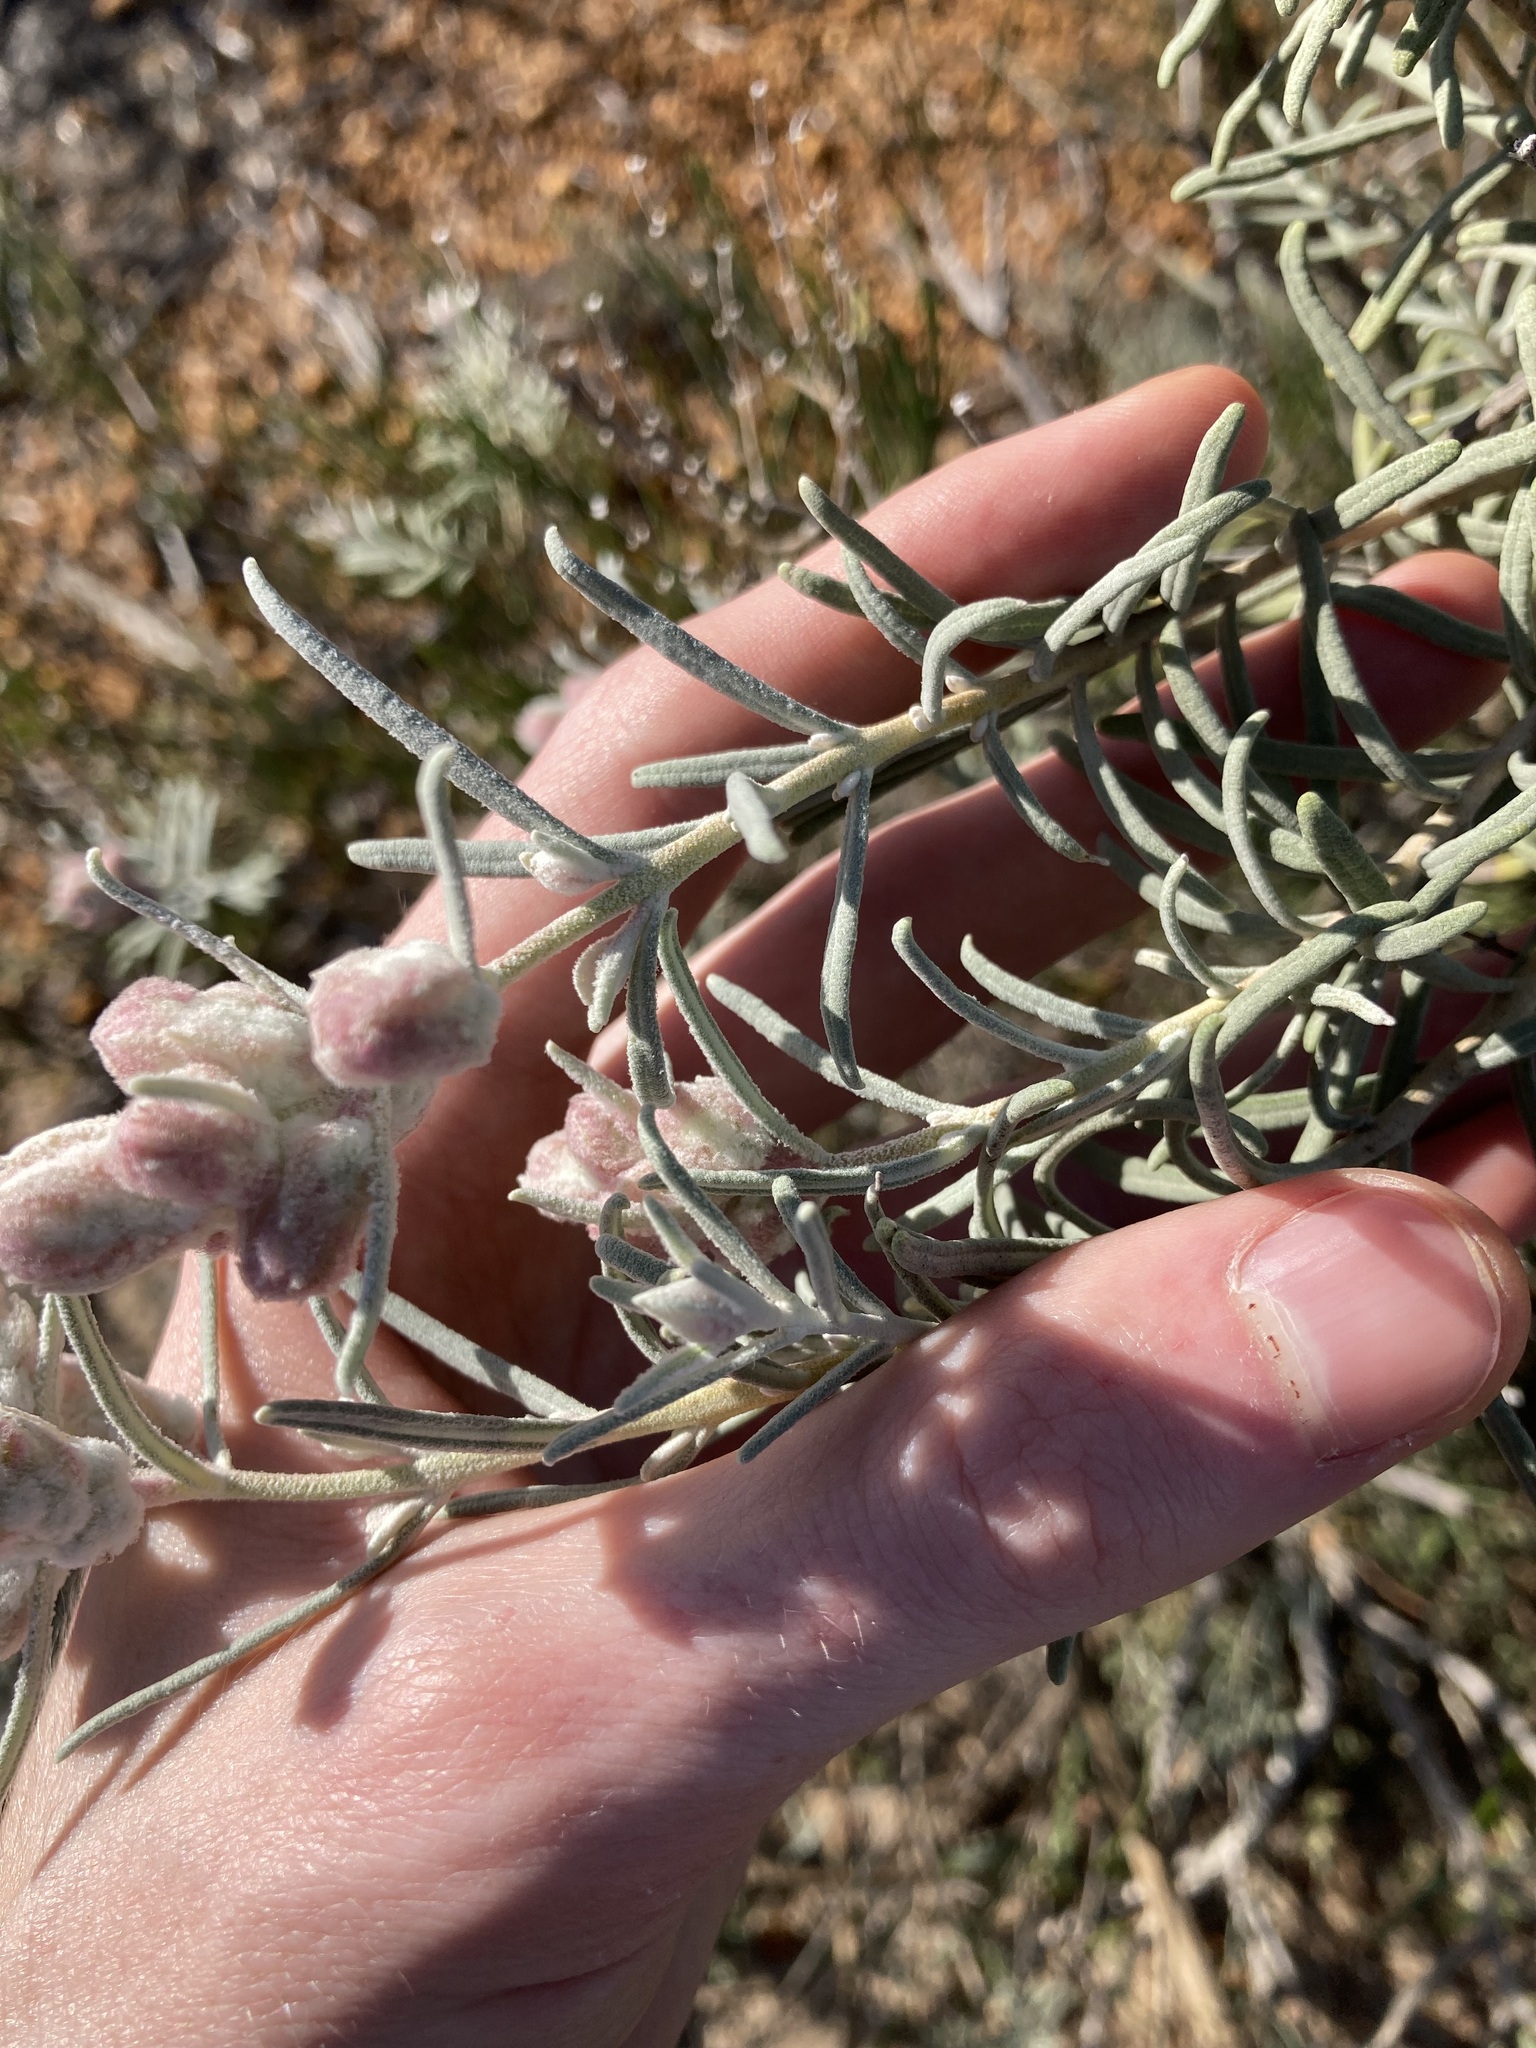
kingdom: Plantae
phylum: Tracheophyta
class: Magnoliopsida
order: Lamiales
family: Lamiaceae
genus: Lachnostachys
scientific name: Lachnostachys eriobotrya
